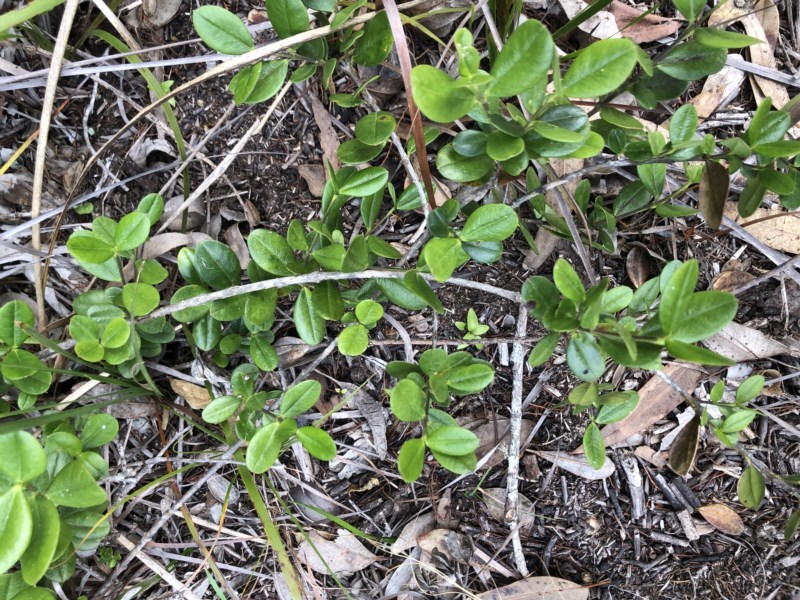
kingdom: Plantae
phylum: Tracheophyta
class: Magnoliopsida
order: Gentianales
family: Apocynaceae
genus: Alyxia
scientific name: Alyxia buxifolia
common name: Dysentery-bush
